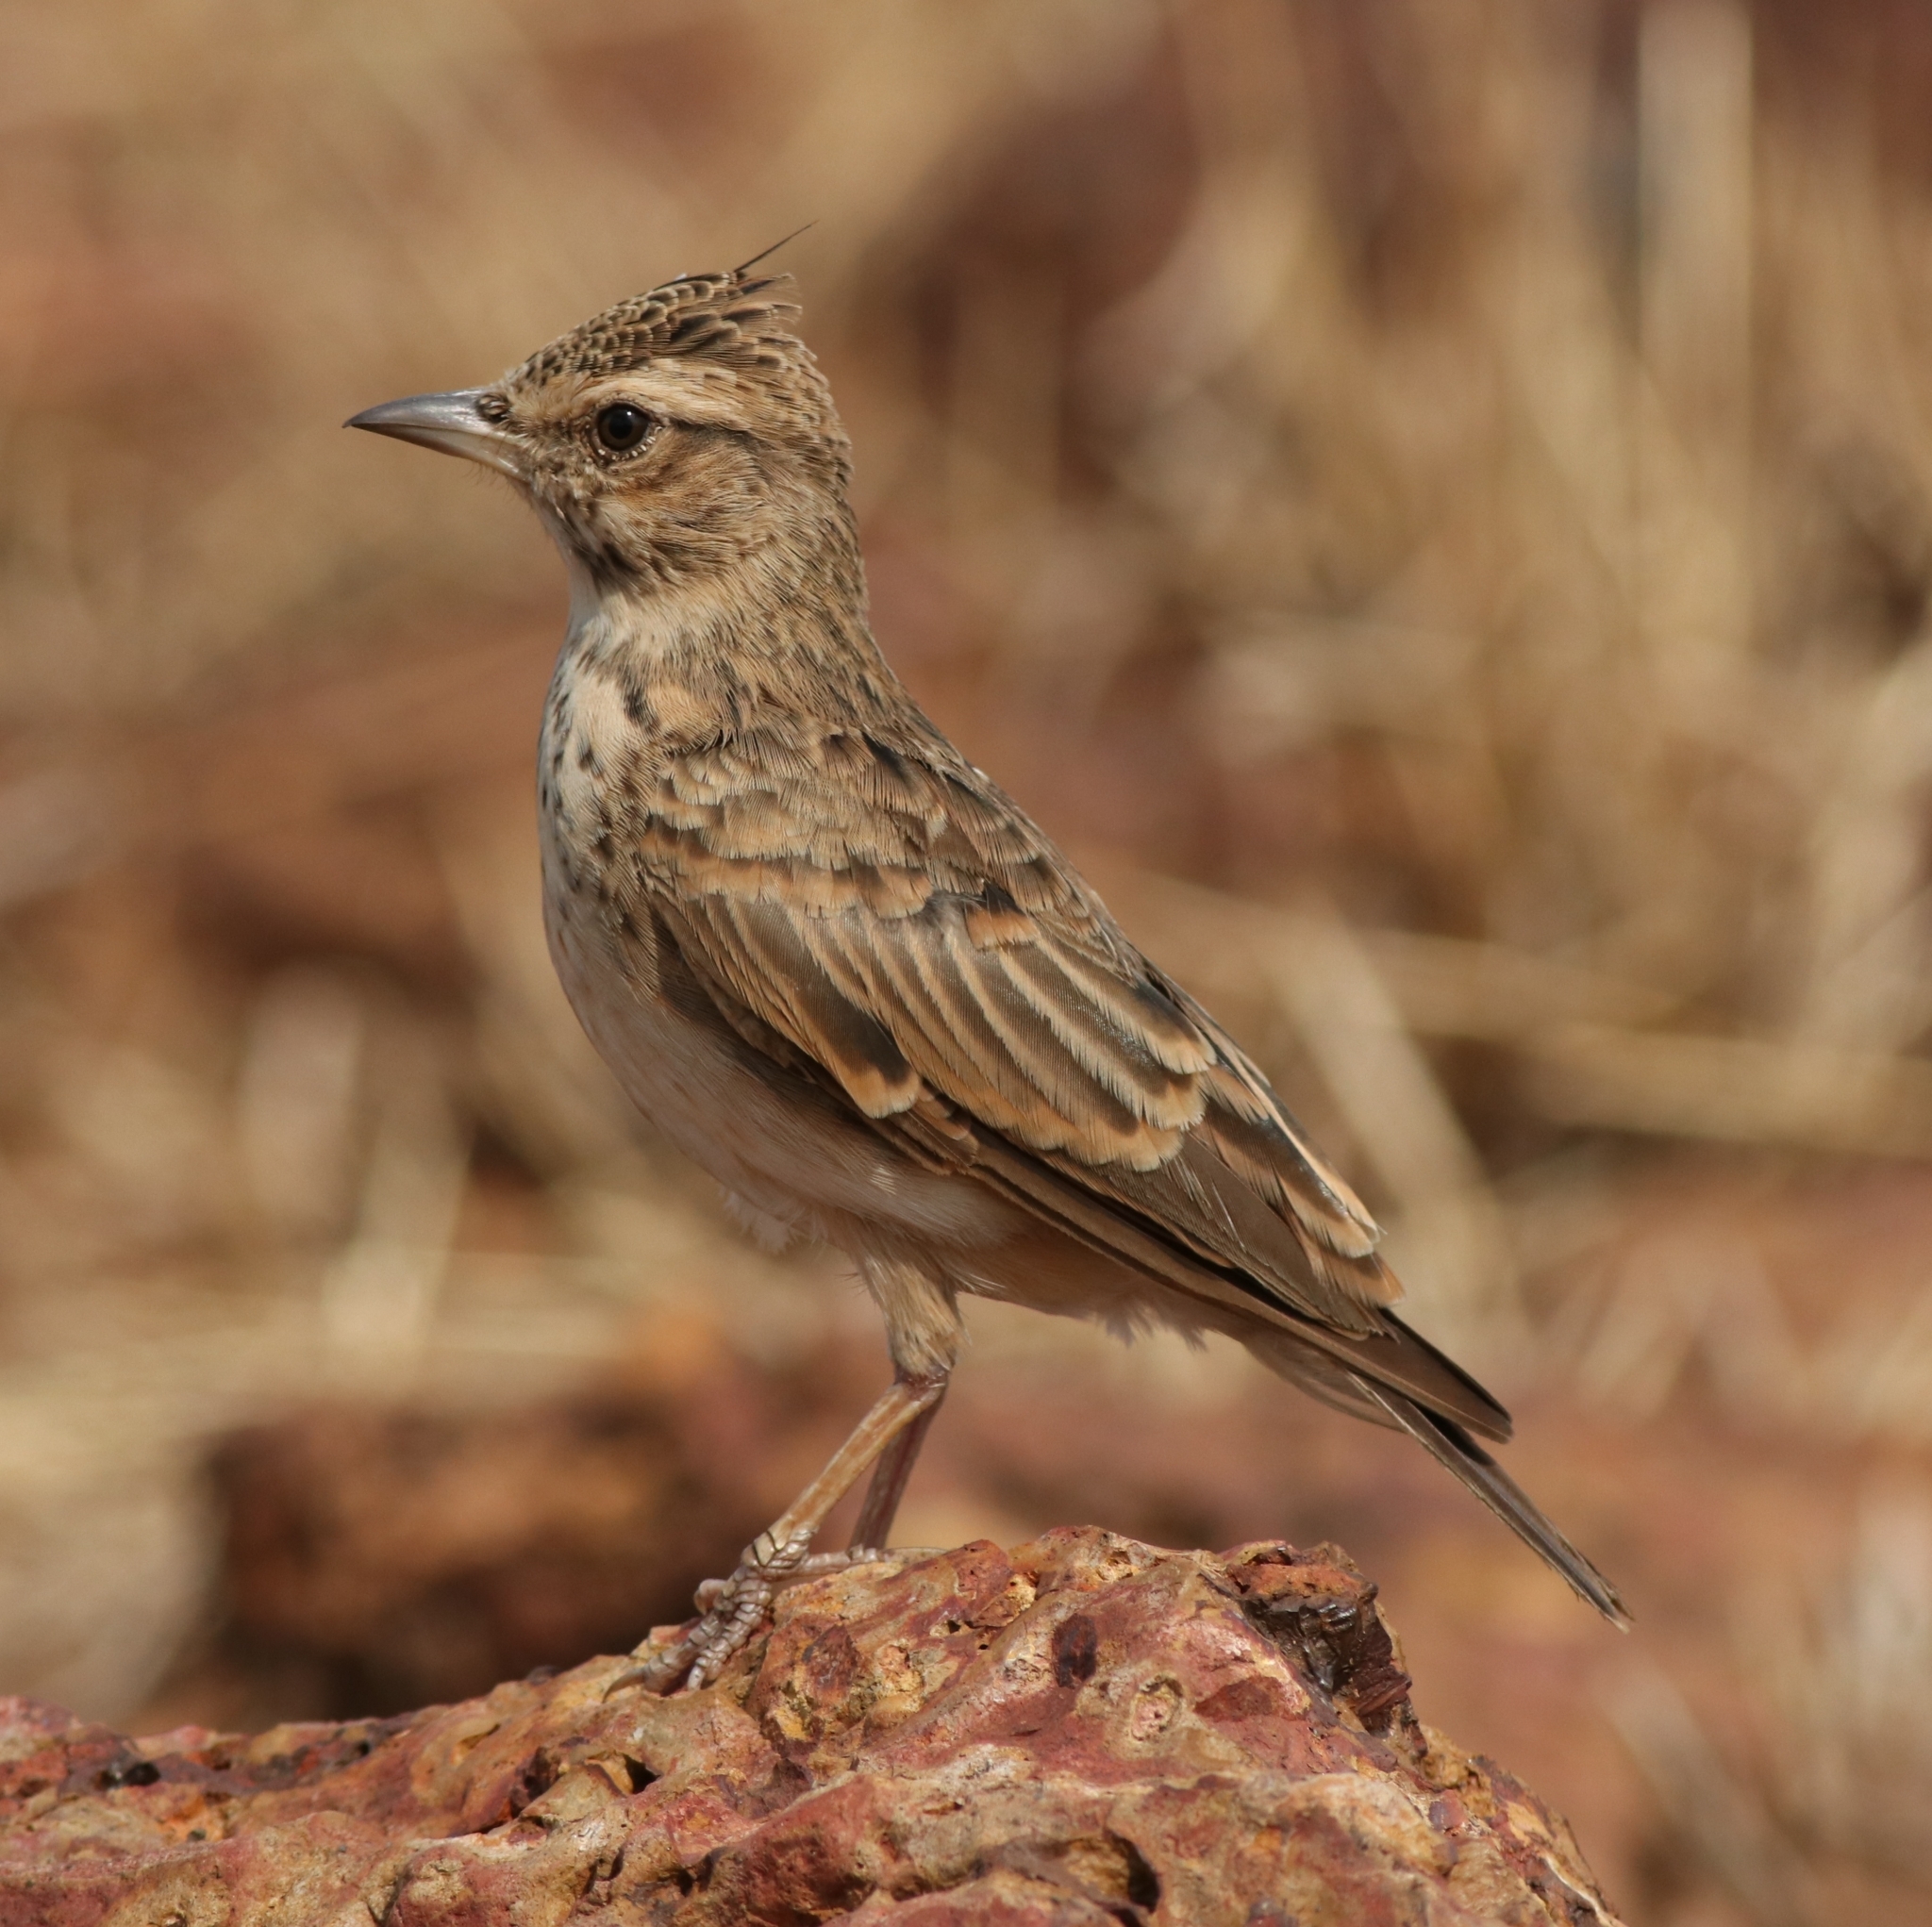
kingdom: Animalia
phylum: Chordata
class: Aves
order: Passeriformes
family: Alaudidae
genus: Galerida
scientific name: Galerida malabarica
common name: Malabar lark
